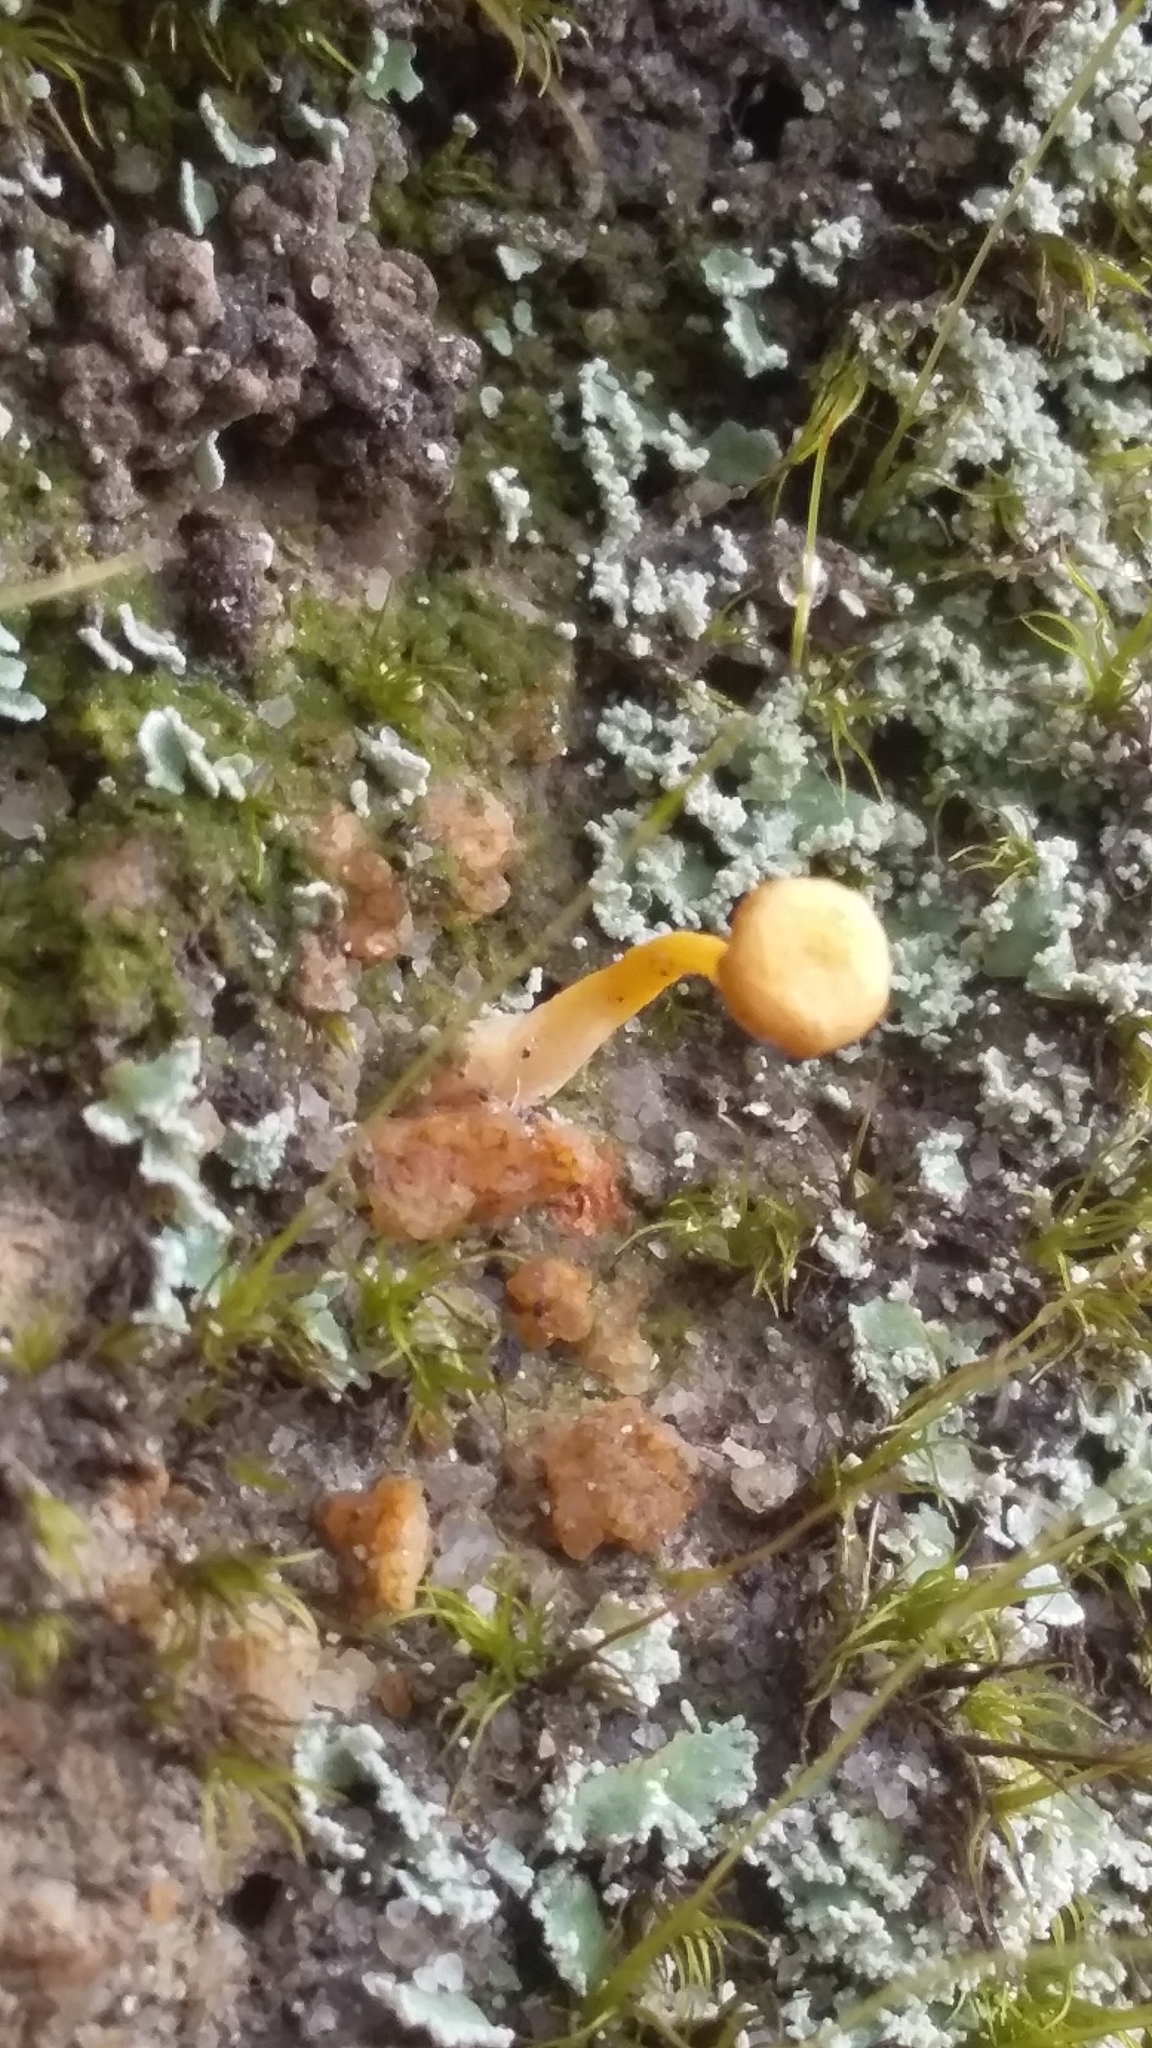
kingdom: Fungi
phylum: Basidiomycota
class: Agaricomycetes
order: Agaricales
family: Hygrophoraceae
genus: Lichenomphalia
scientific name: Lichenomphalia chromacea
